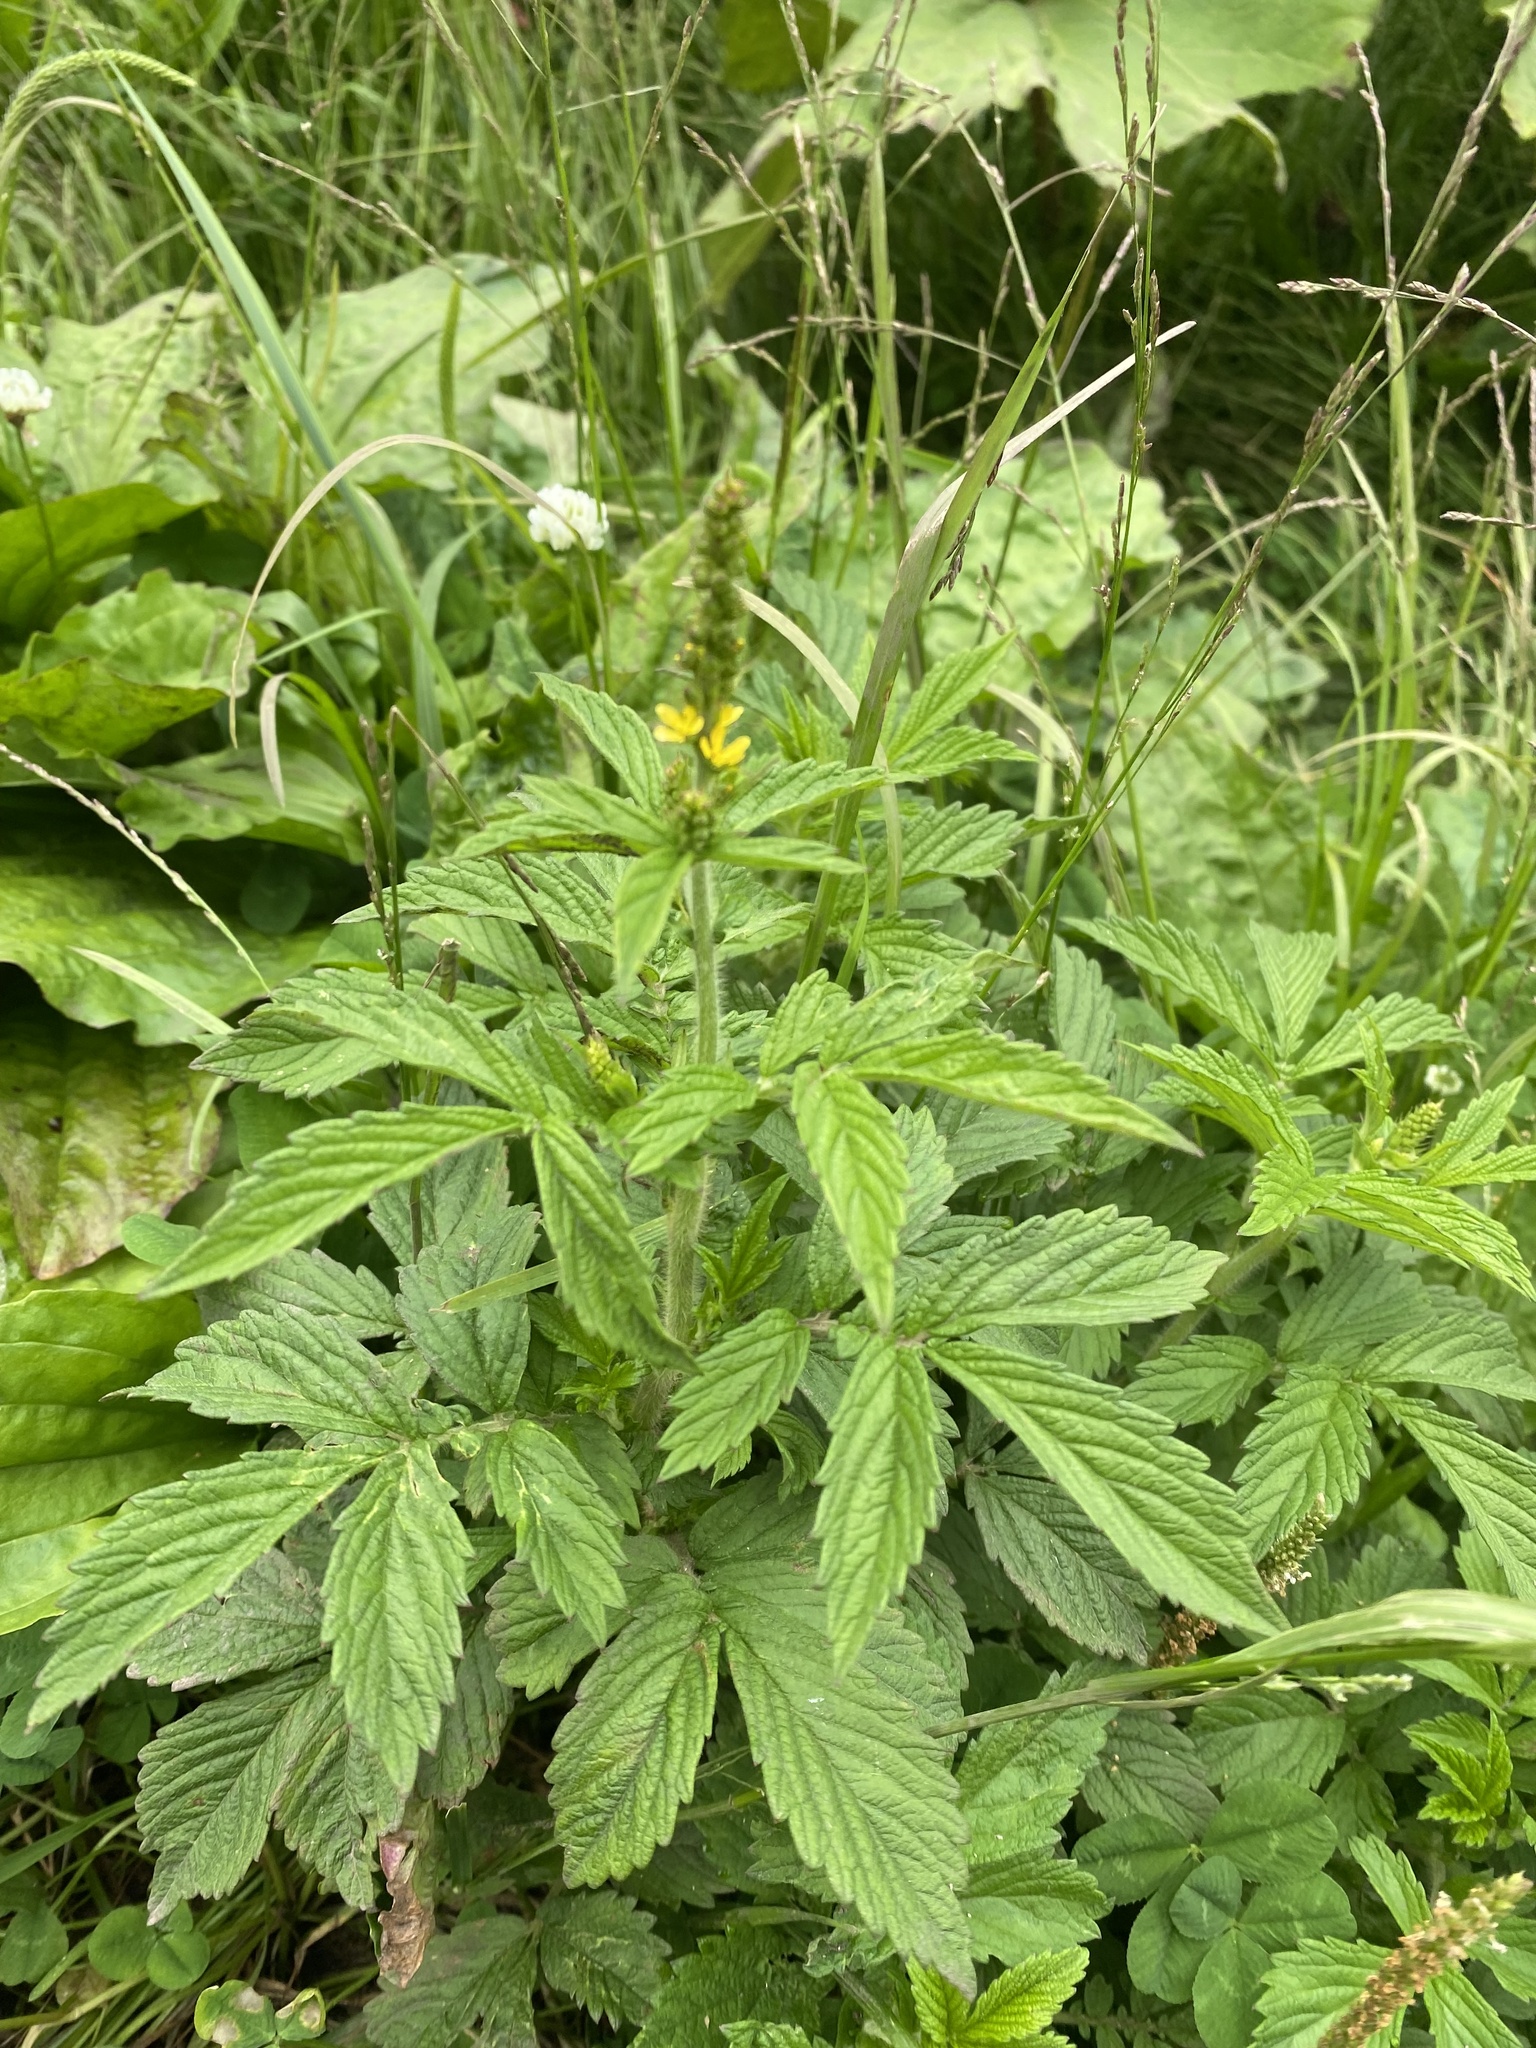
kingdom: Plantae
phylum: Tracheophyta
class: Magnoliopsida
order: Rosales
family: Rosaceae
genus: Agrimonia
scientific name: Agrimonia eupatoria
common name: Agrimony
